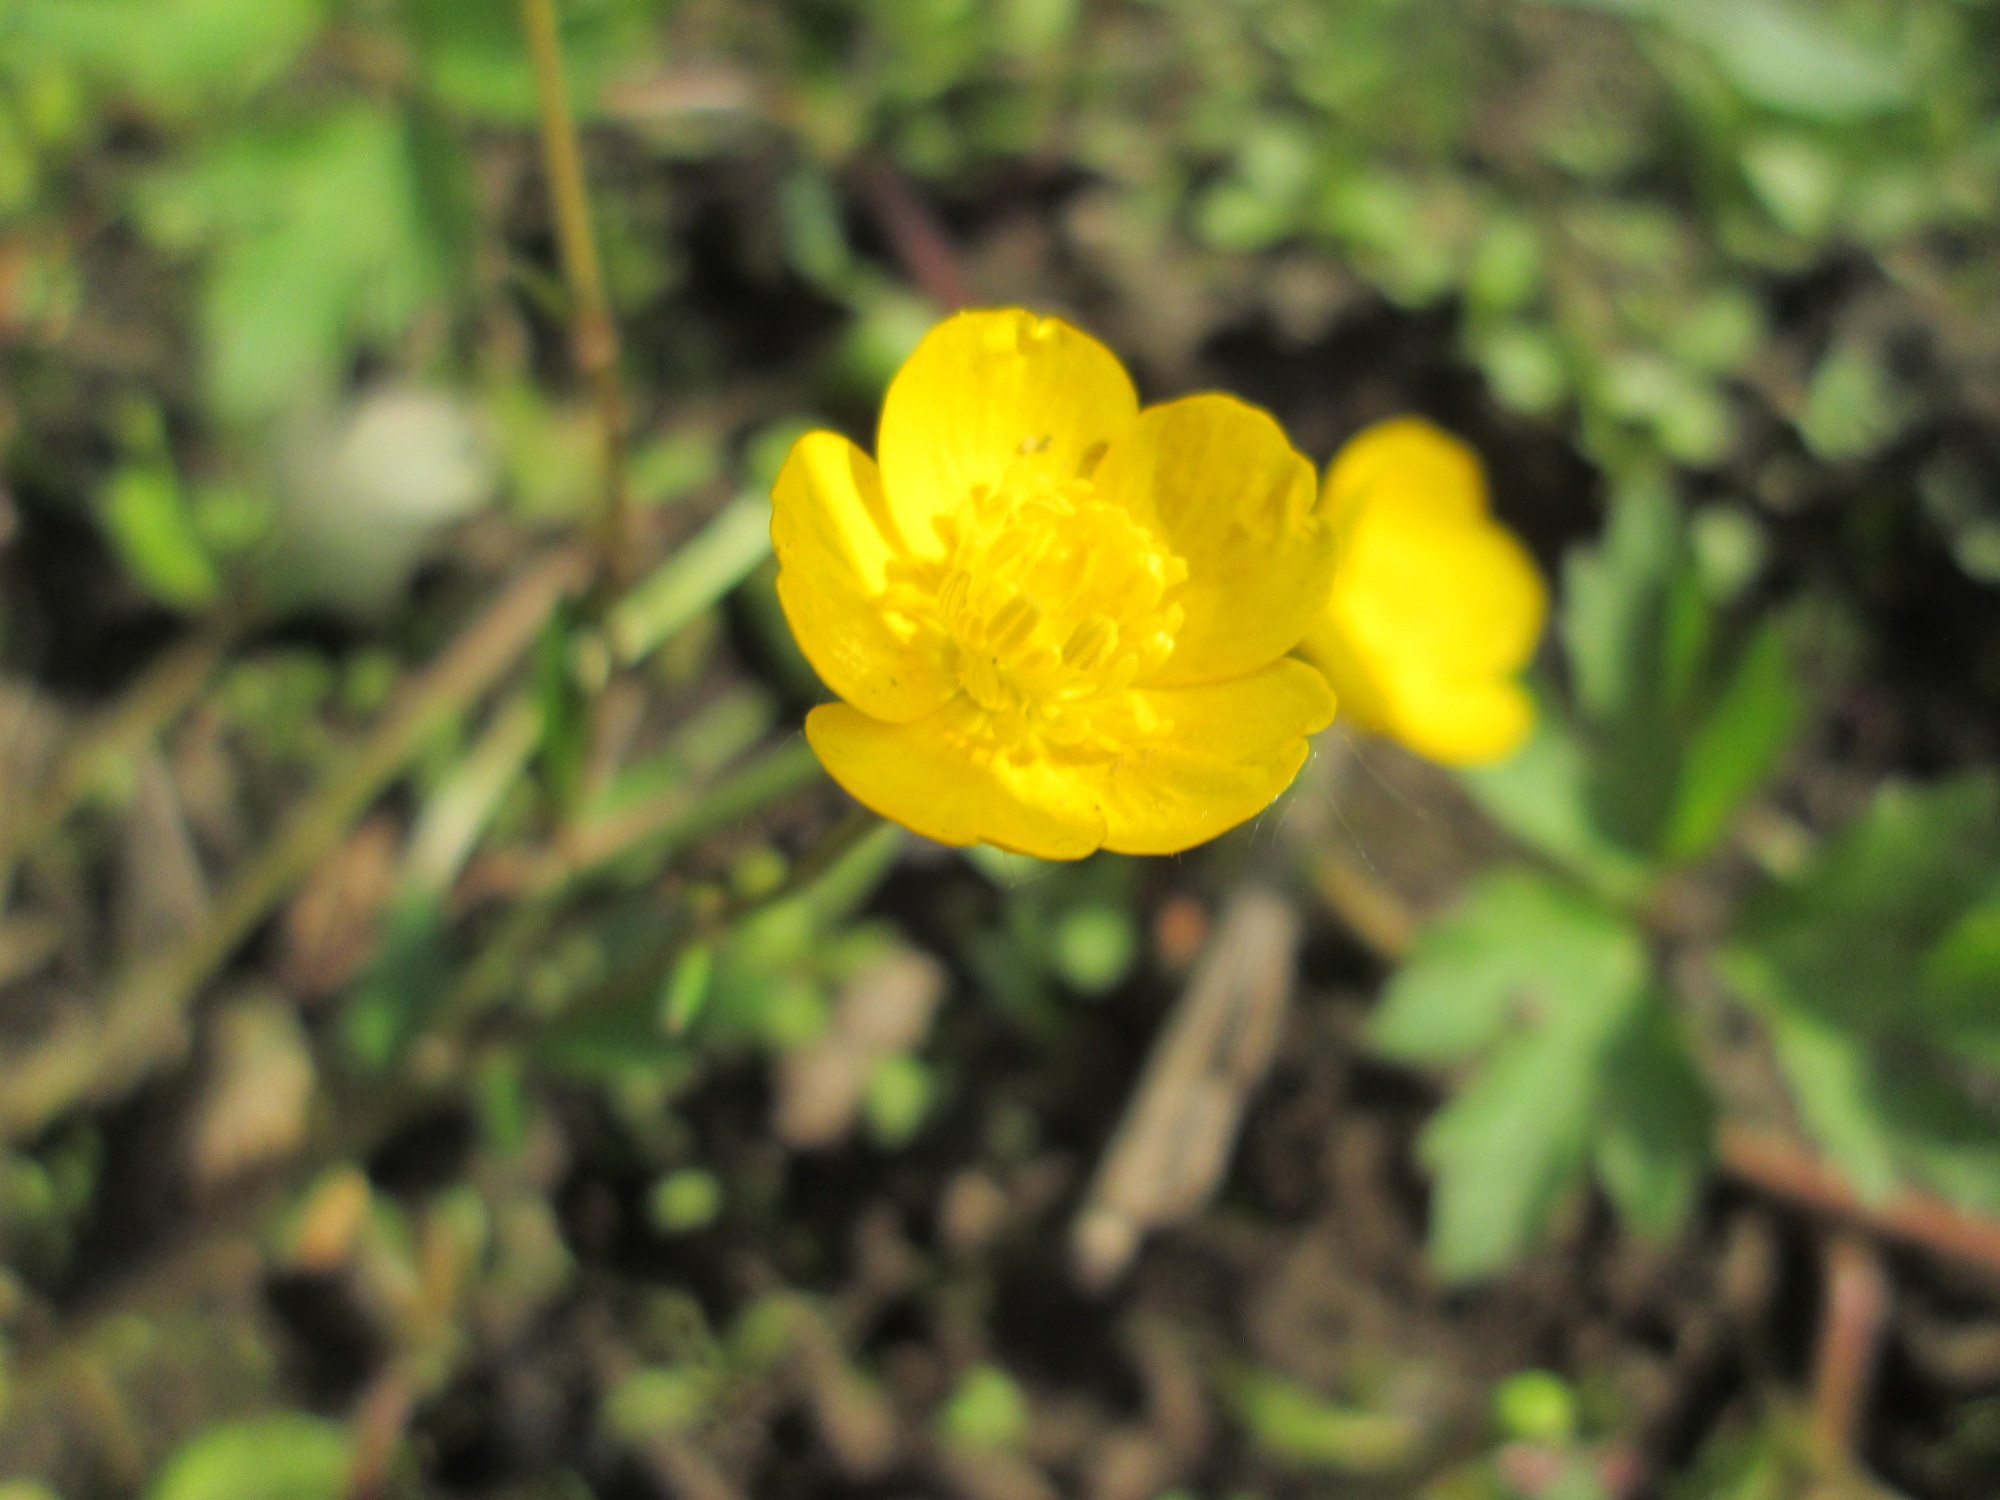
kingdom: Plantae
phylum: Tracheophyta
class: Magnoliopsida
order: Ranunculales
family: Ranunculaceae
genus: Ranunculus
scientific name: Ranunculus repens
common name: Creeping buttercup
